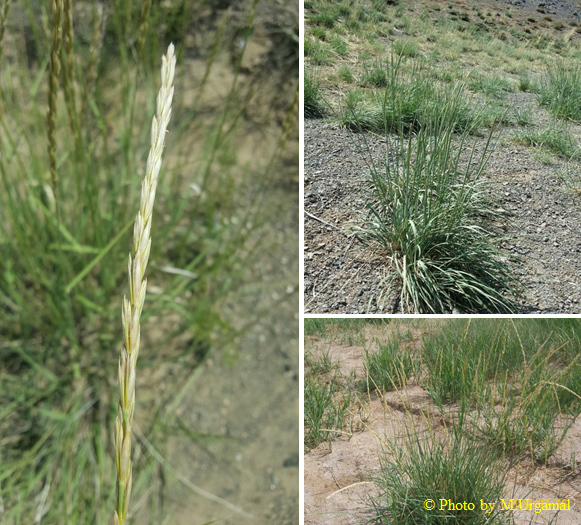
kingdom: Plantae
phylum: Tracheophyta
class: Liliopsida
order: Poales
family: Poaceae
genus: Elymus
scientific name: Elymus repens
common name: Quackgrass
